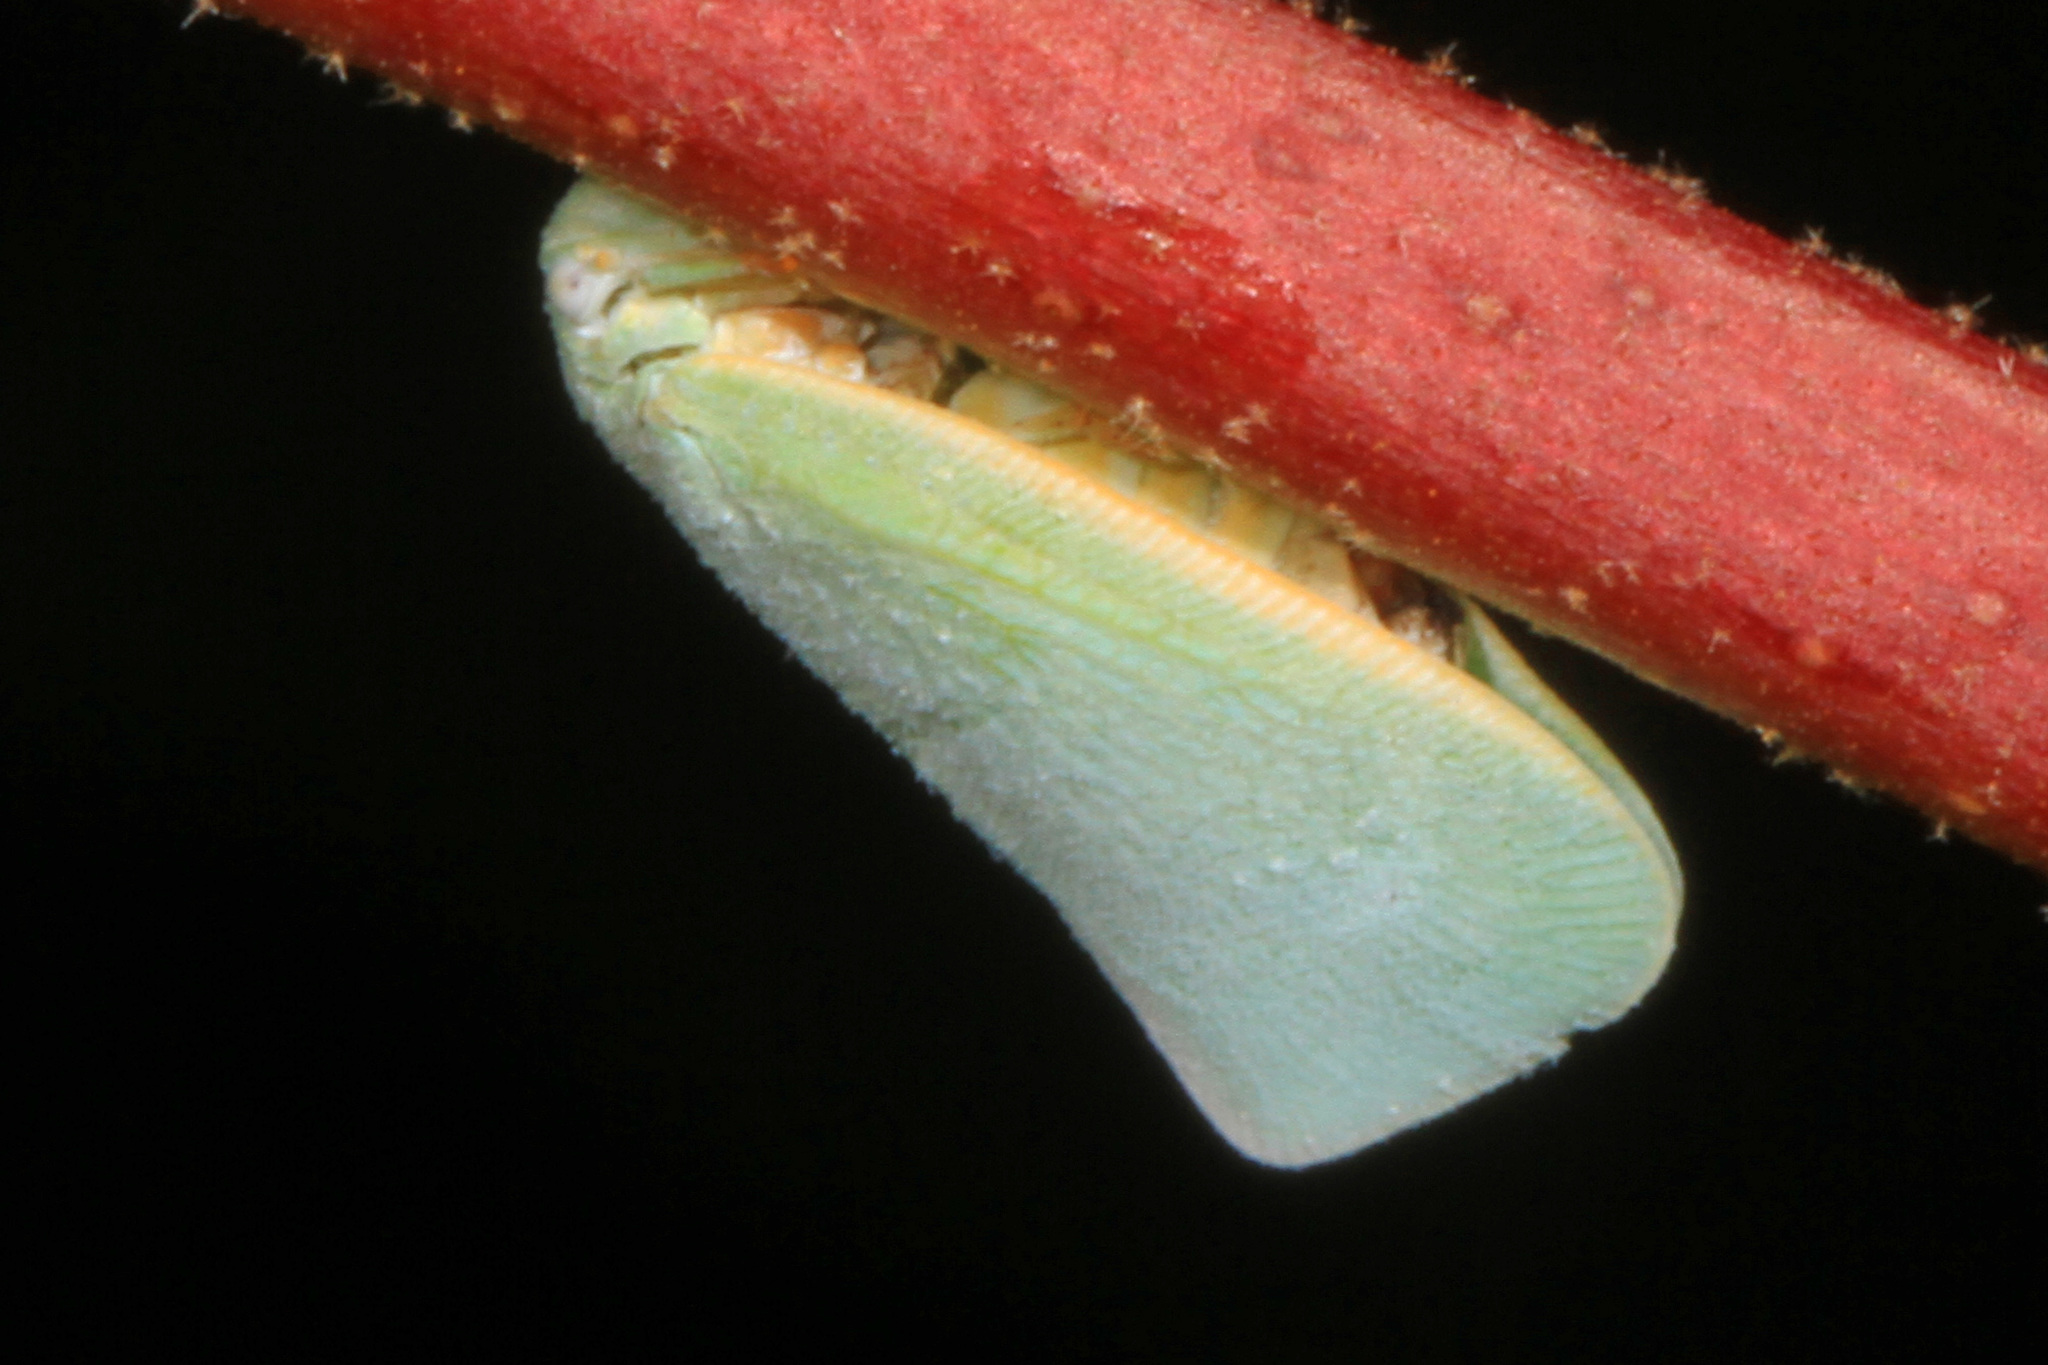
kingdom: Animalia
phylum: Arthropoda
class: Insecta
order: Hemiptera
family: Flatidae
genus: Flatormenis
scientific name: Flatormenis proxima
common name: Northern flatid planthopper
